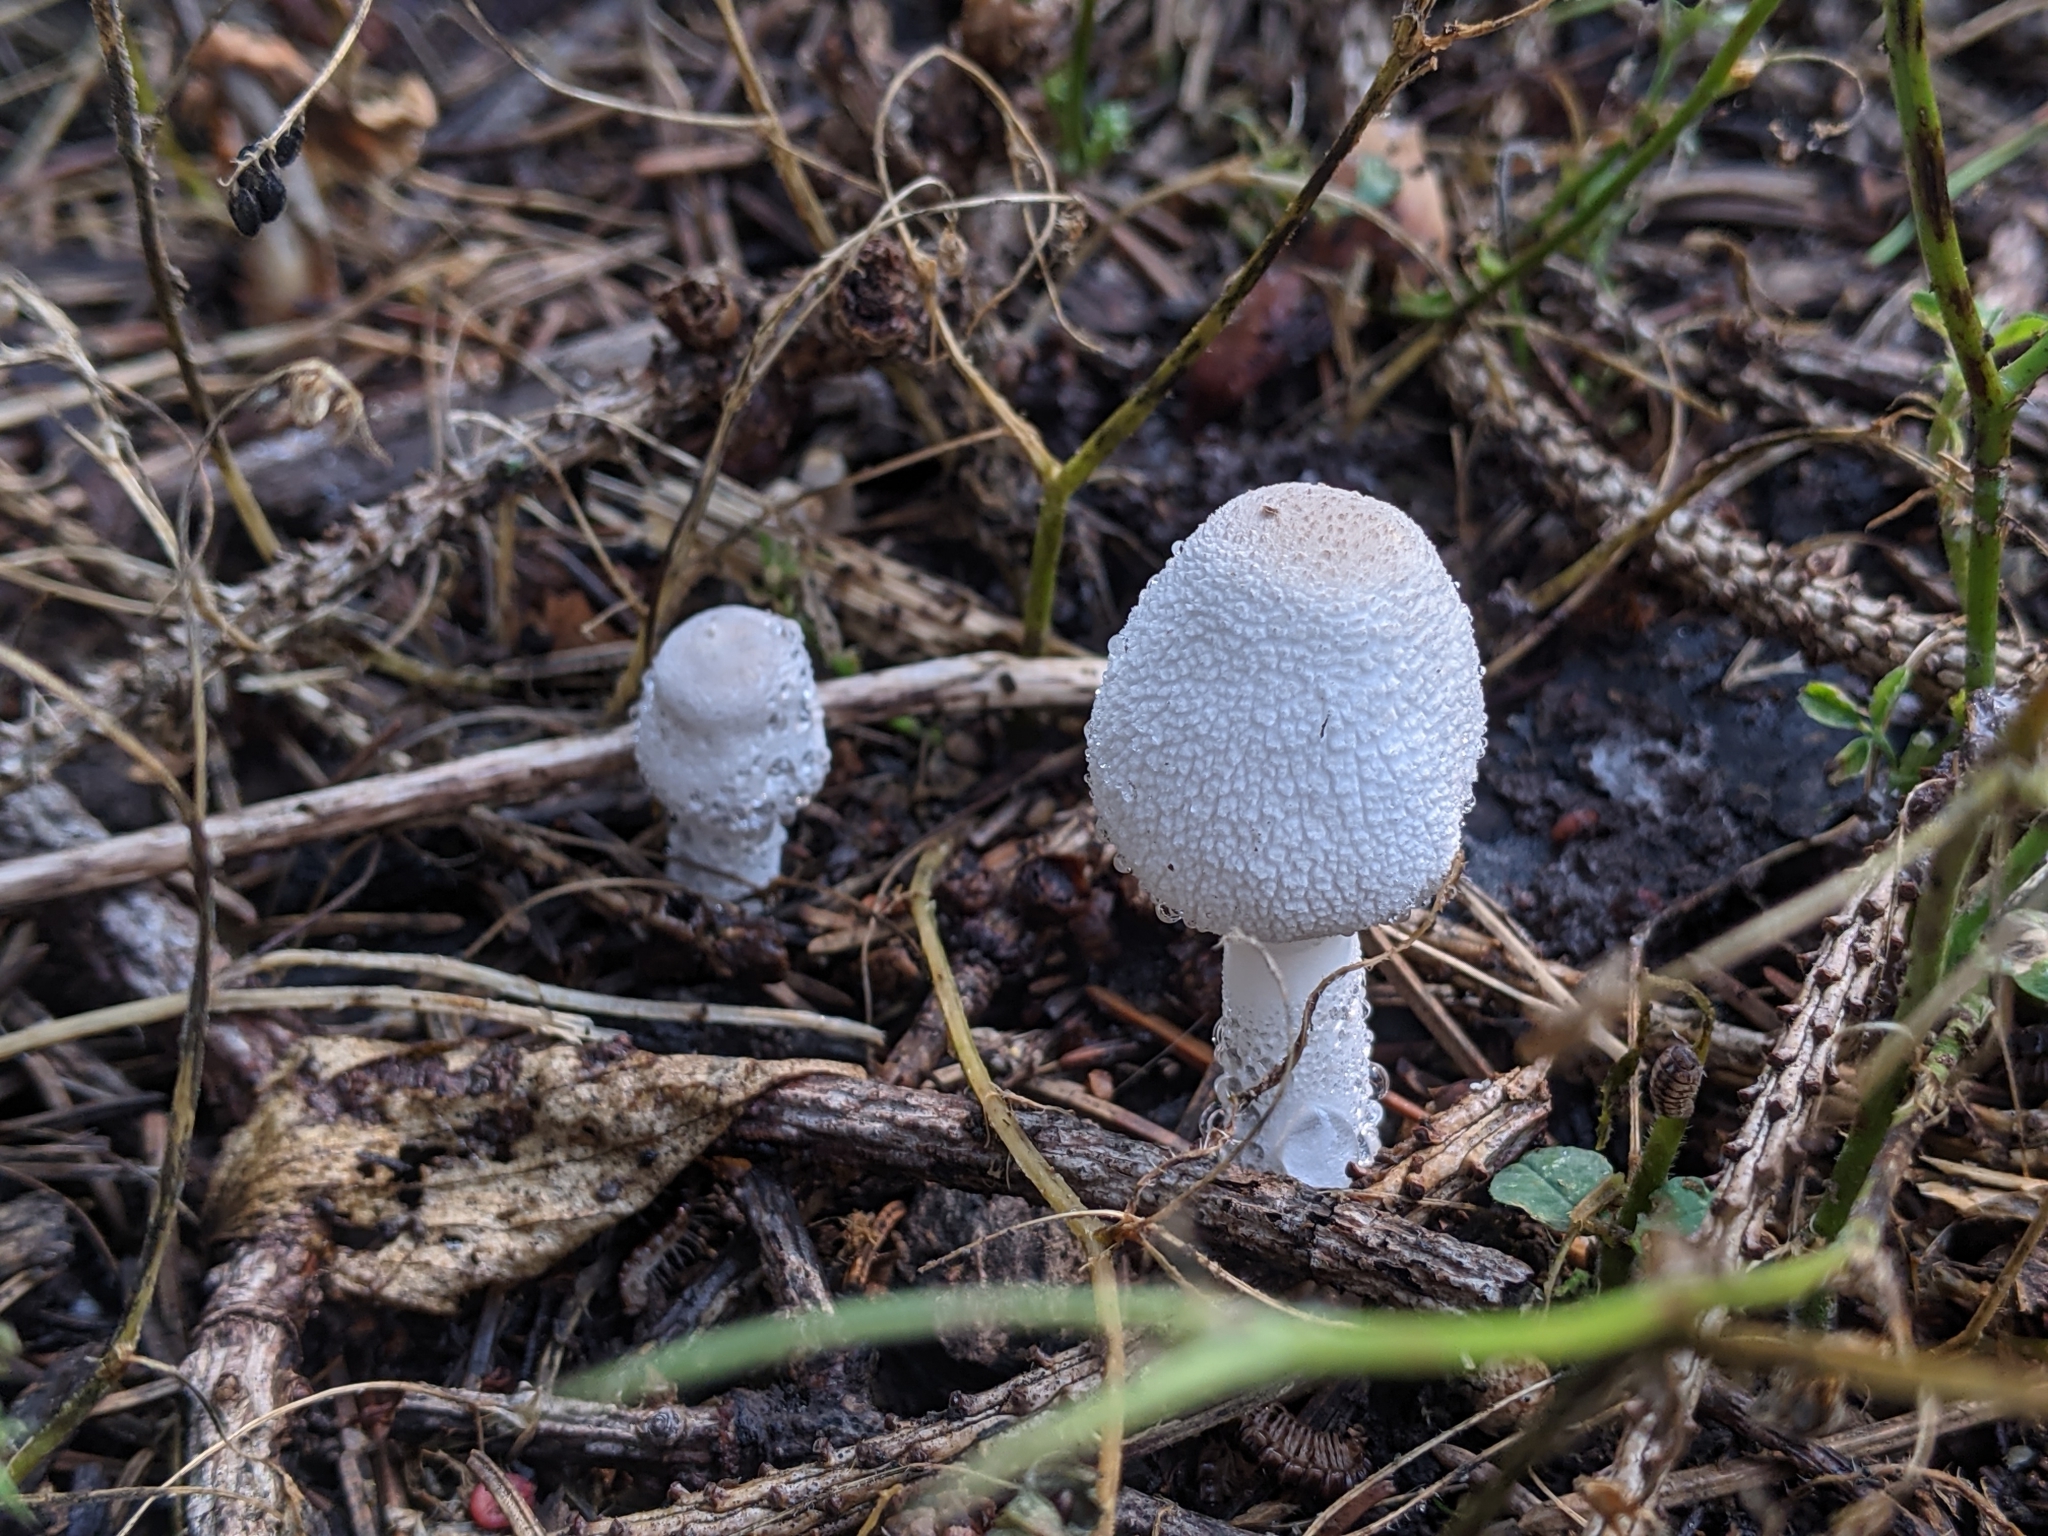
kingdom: Fungi
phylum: Basidiomycota
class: Agaricomycetes
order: Agaricales
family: Agaricaceae
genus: Leucocoprinus
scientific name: Leucocoprinus cepistipes
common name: Onion-stalk parasol
